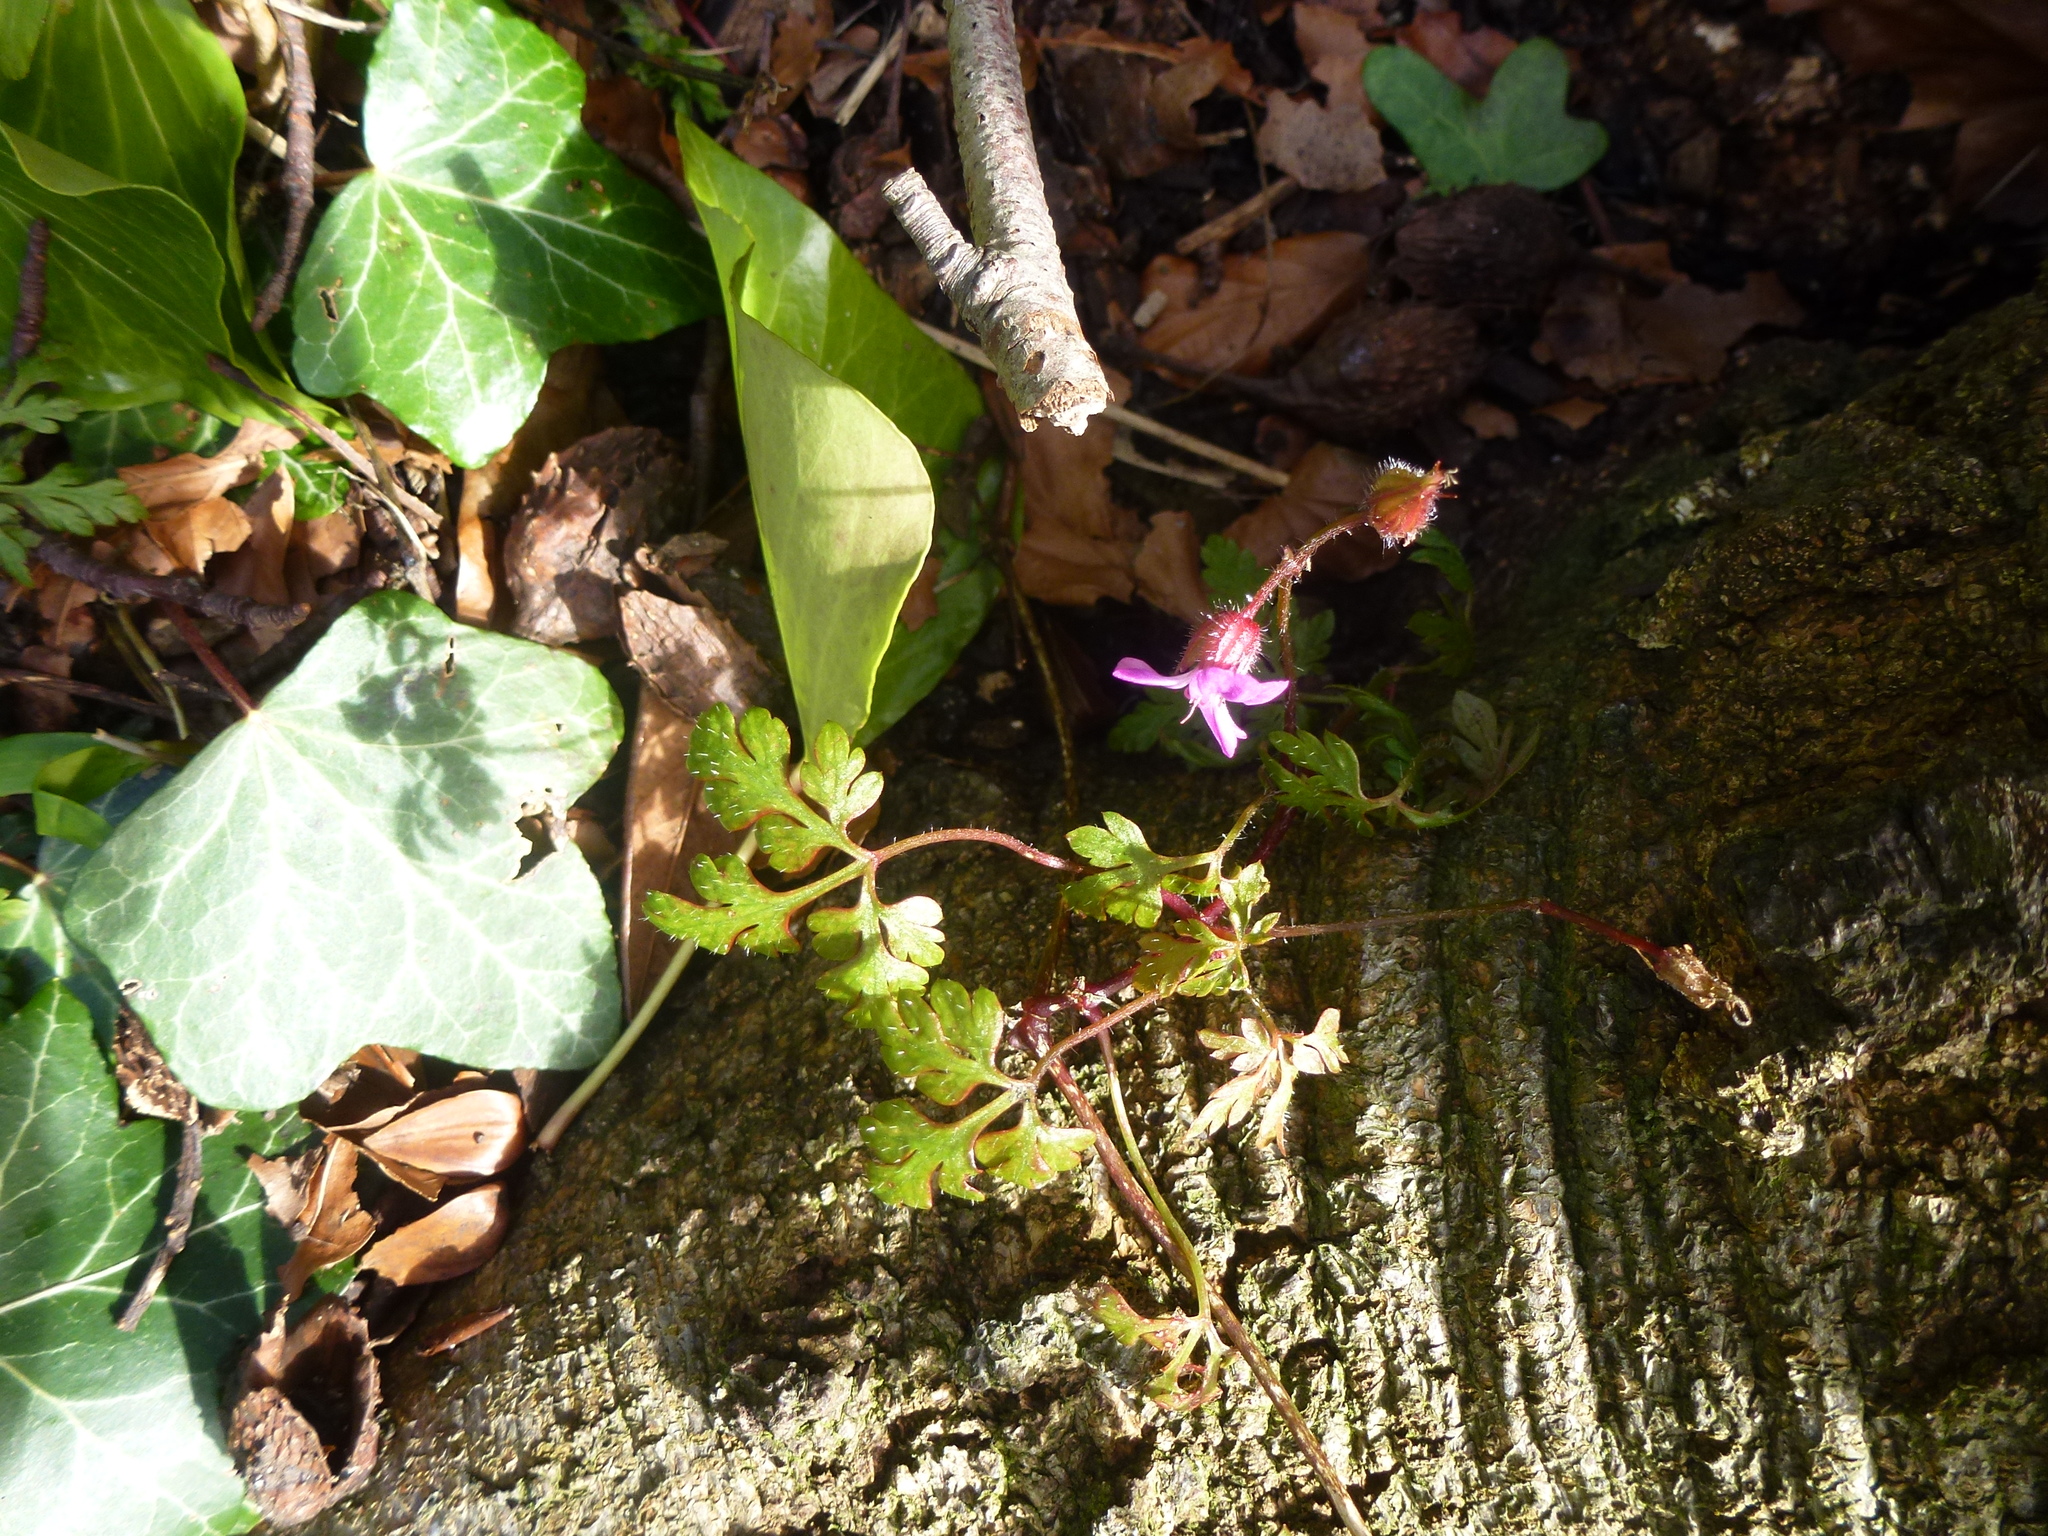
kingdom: Plantae
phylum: Tracheophyta
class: Magnoliopsida
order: Geraniales
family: Geraniaceae
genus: Geranium
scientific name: Geranium robertianum
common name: Herb-robert
